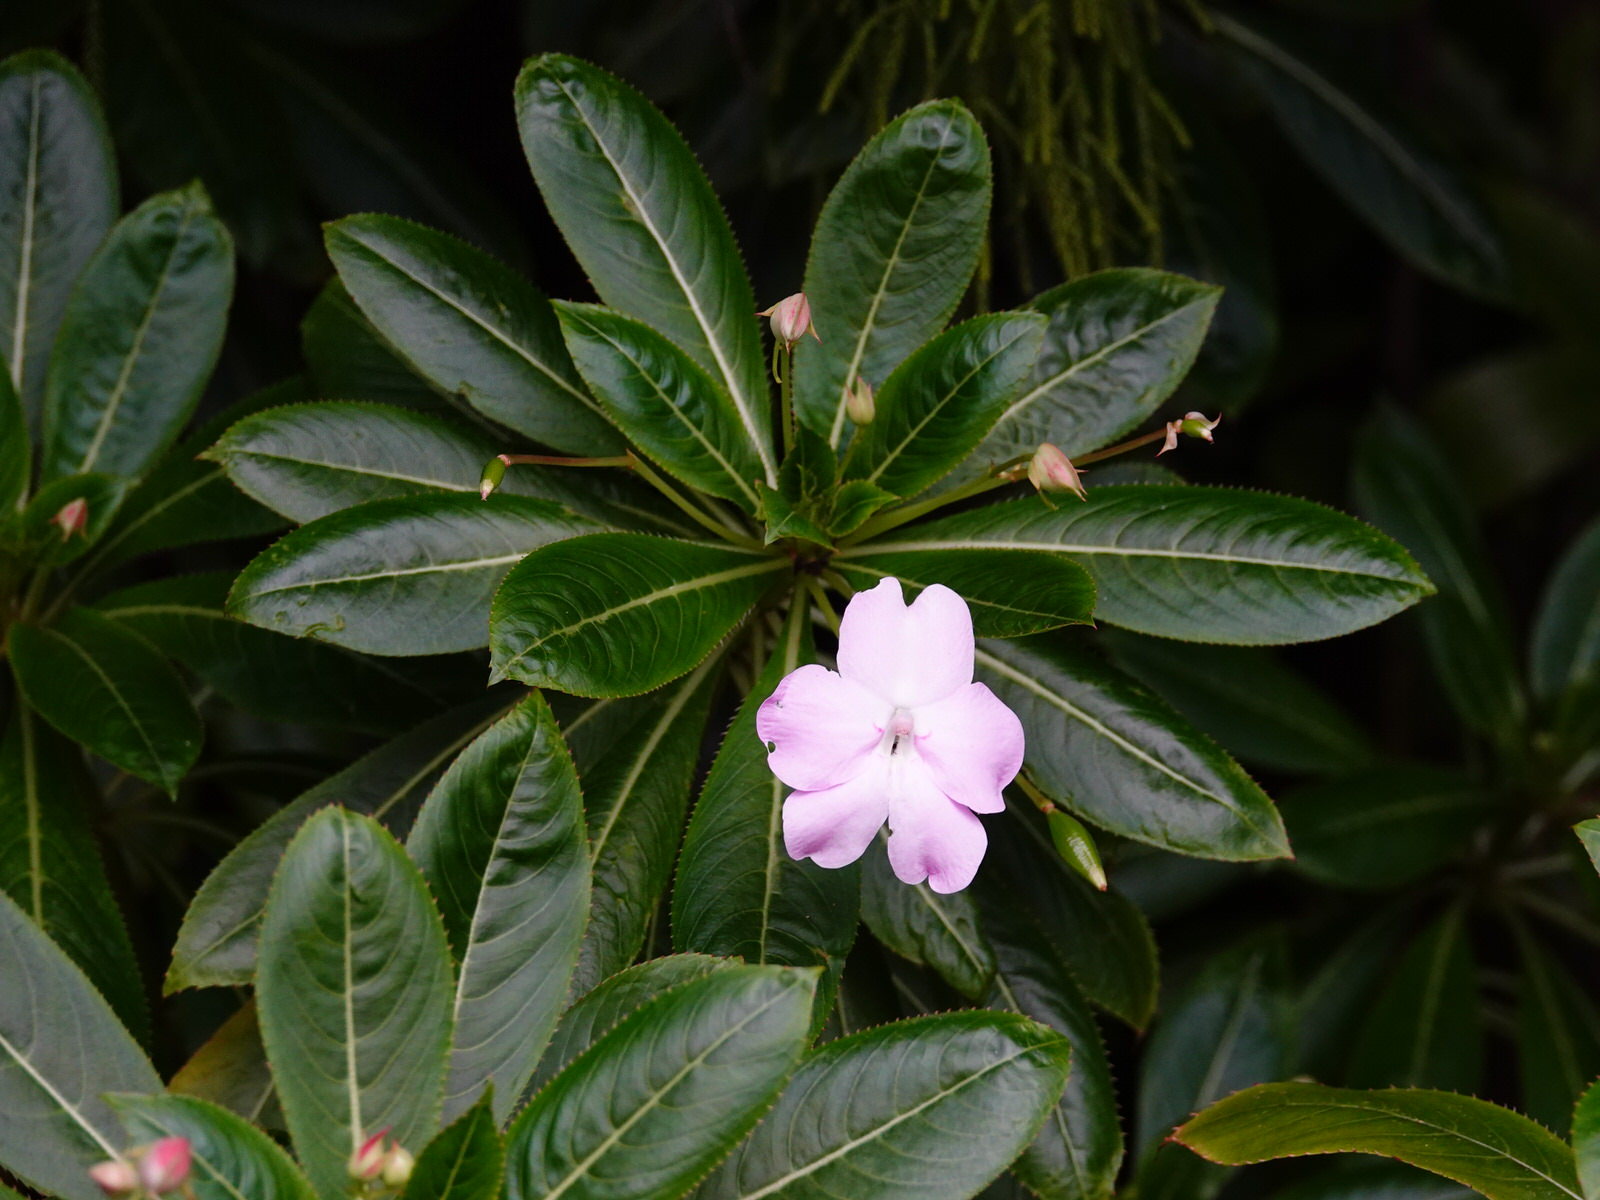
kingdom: Plantae
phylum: Tracheophyta
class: Magnoliopsida
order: Ericales
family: Balsaminaceae
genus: Impatiens
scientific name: Impatiens sodenii
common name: Oliver's touch-me-not
